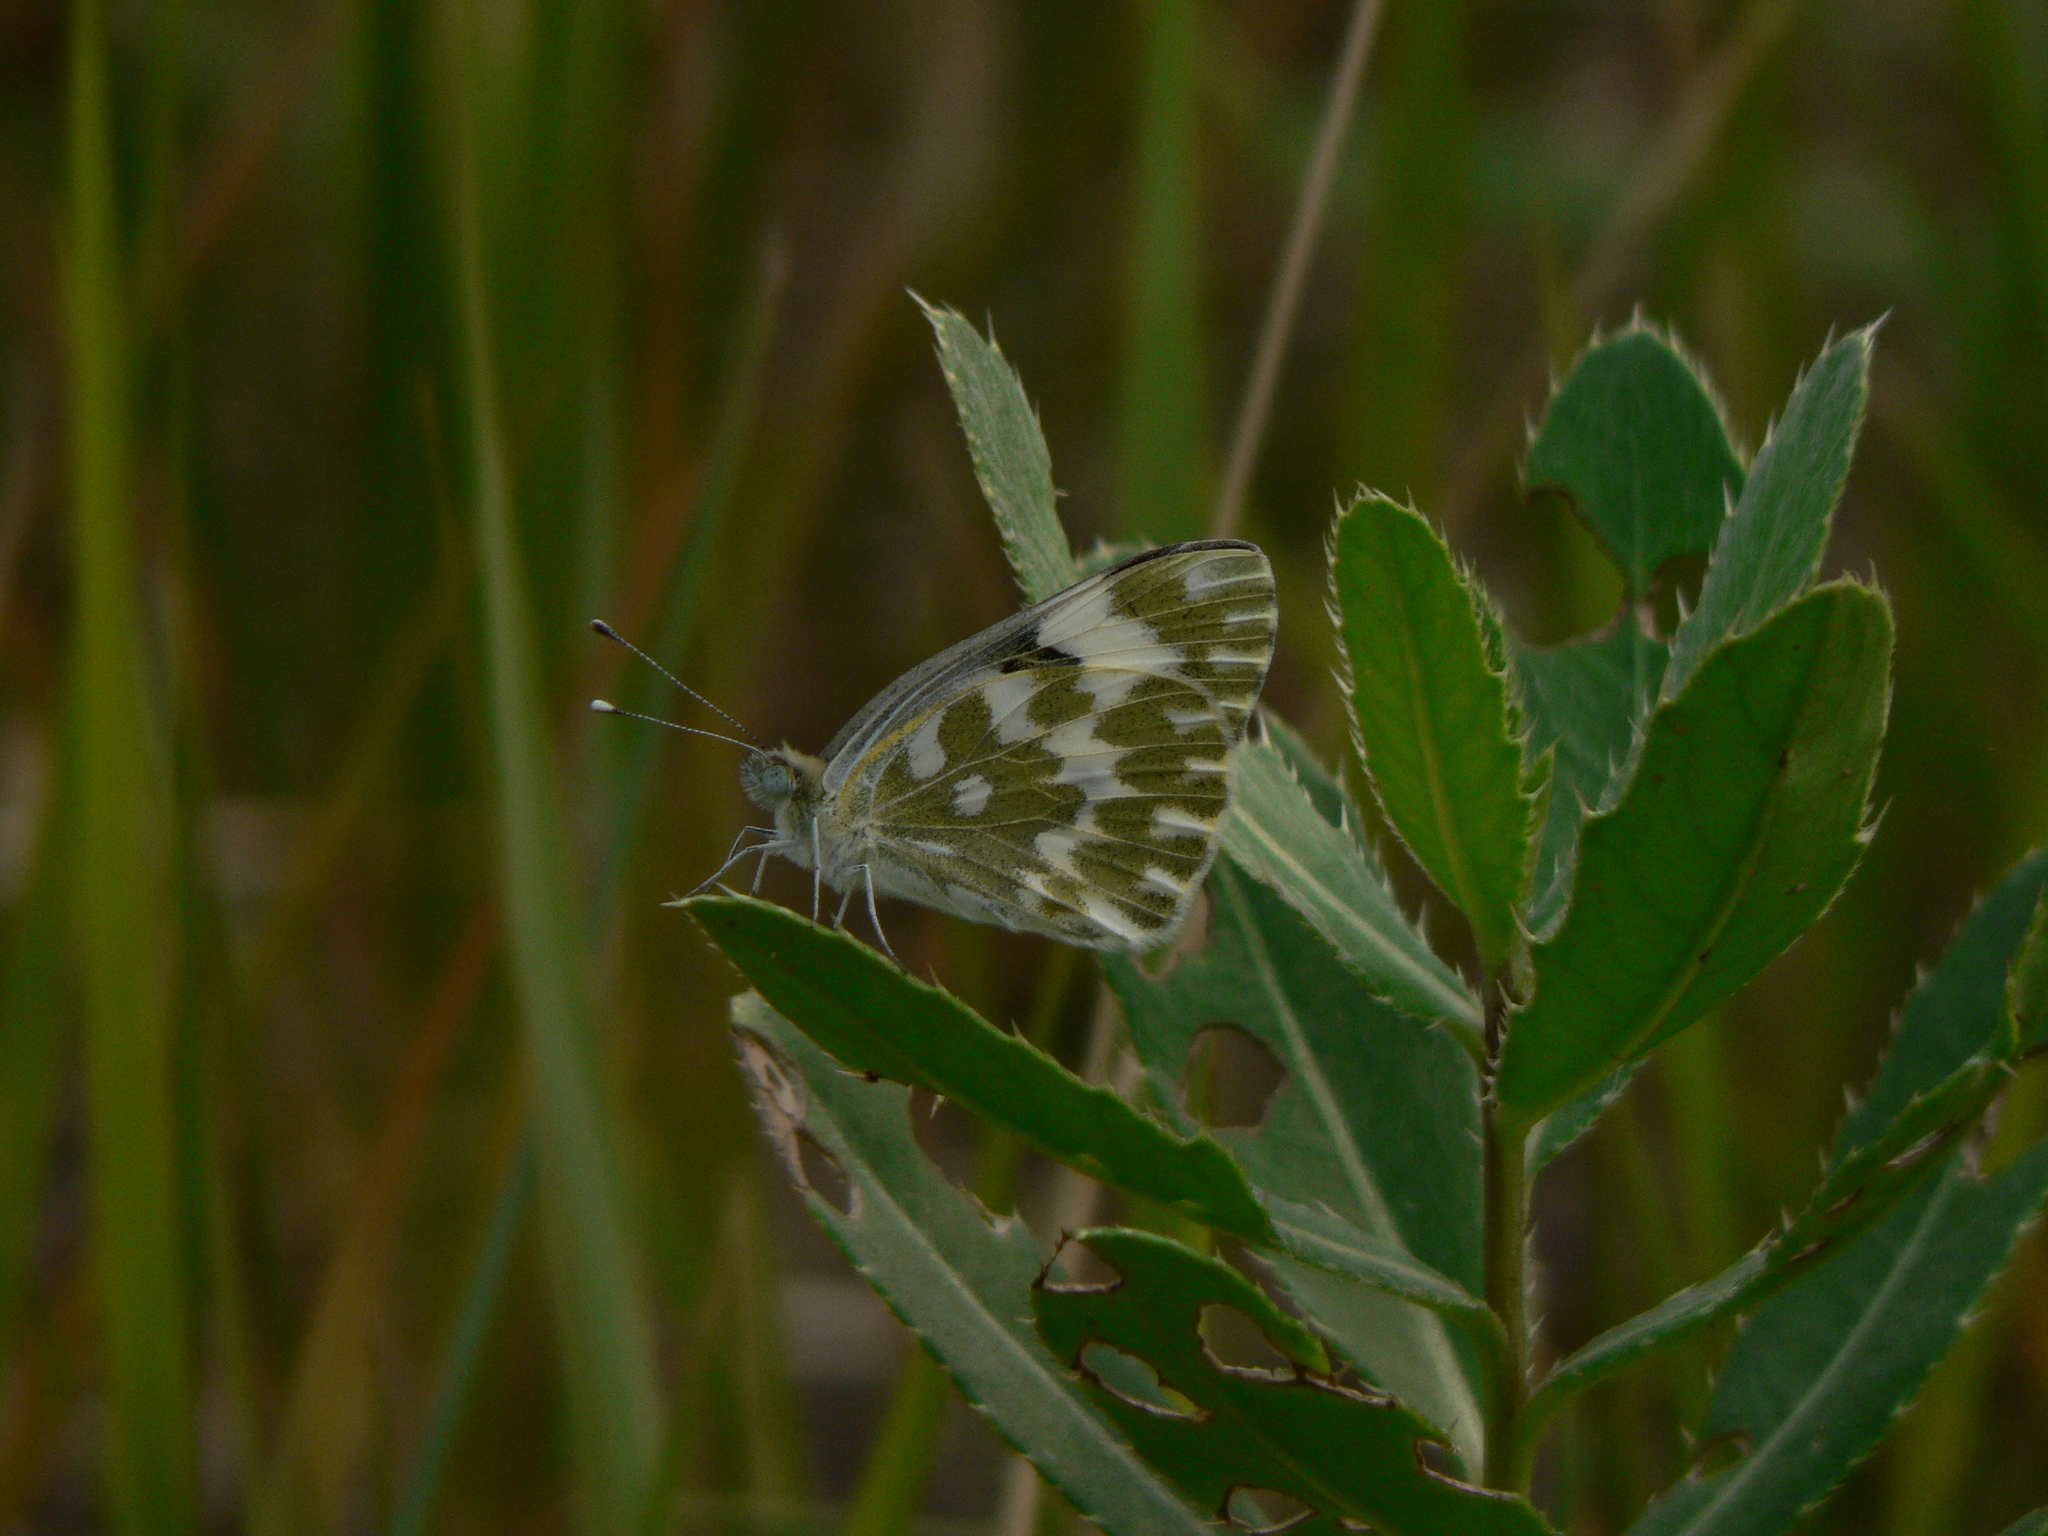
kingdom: Animalia
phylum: Arthropoda
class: Insecta
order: Lepidoptera
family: Pieridae
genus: Pontia
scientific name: Pontia edusa
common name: Eastern bath white
